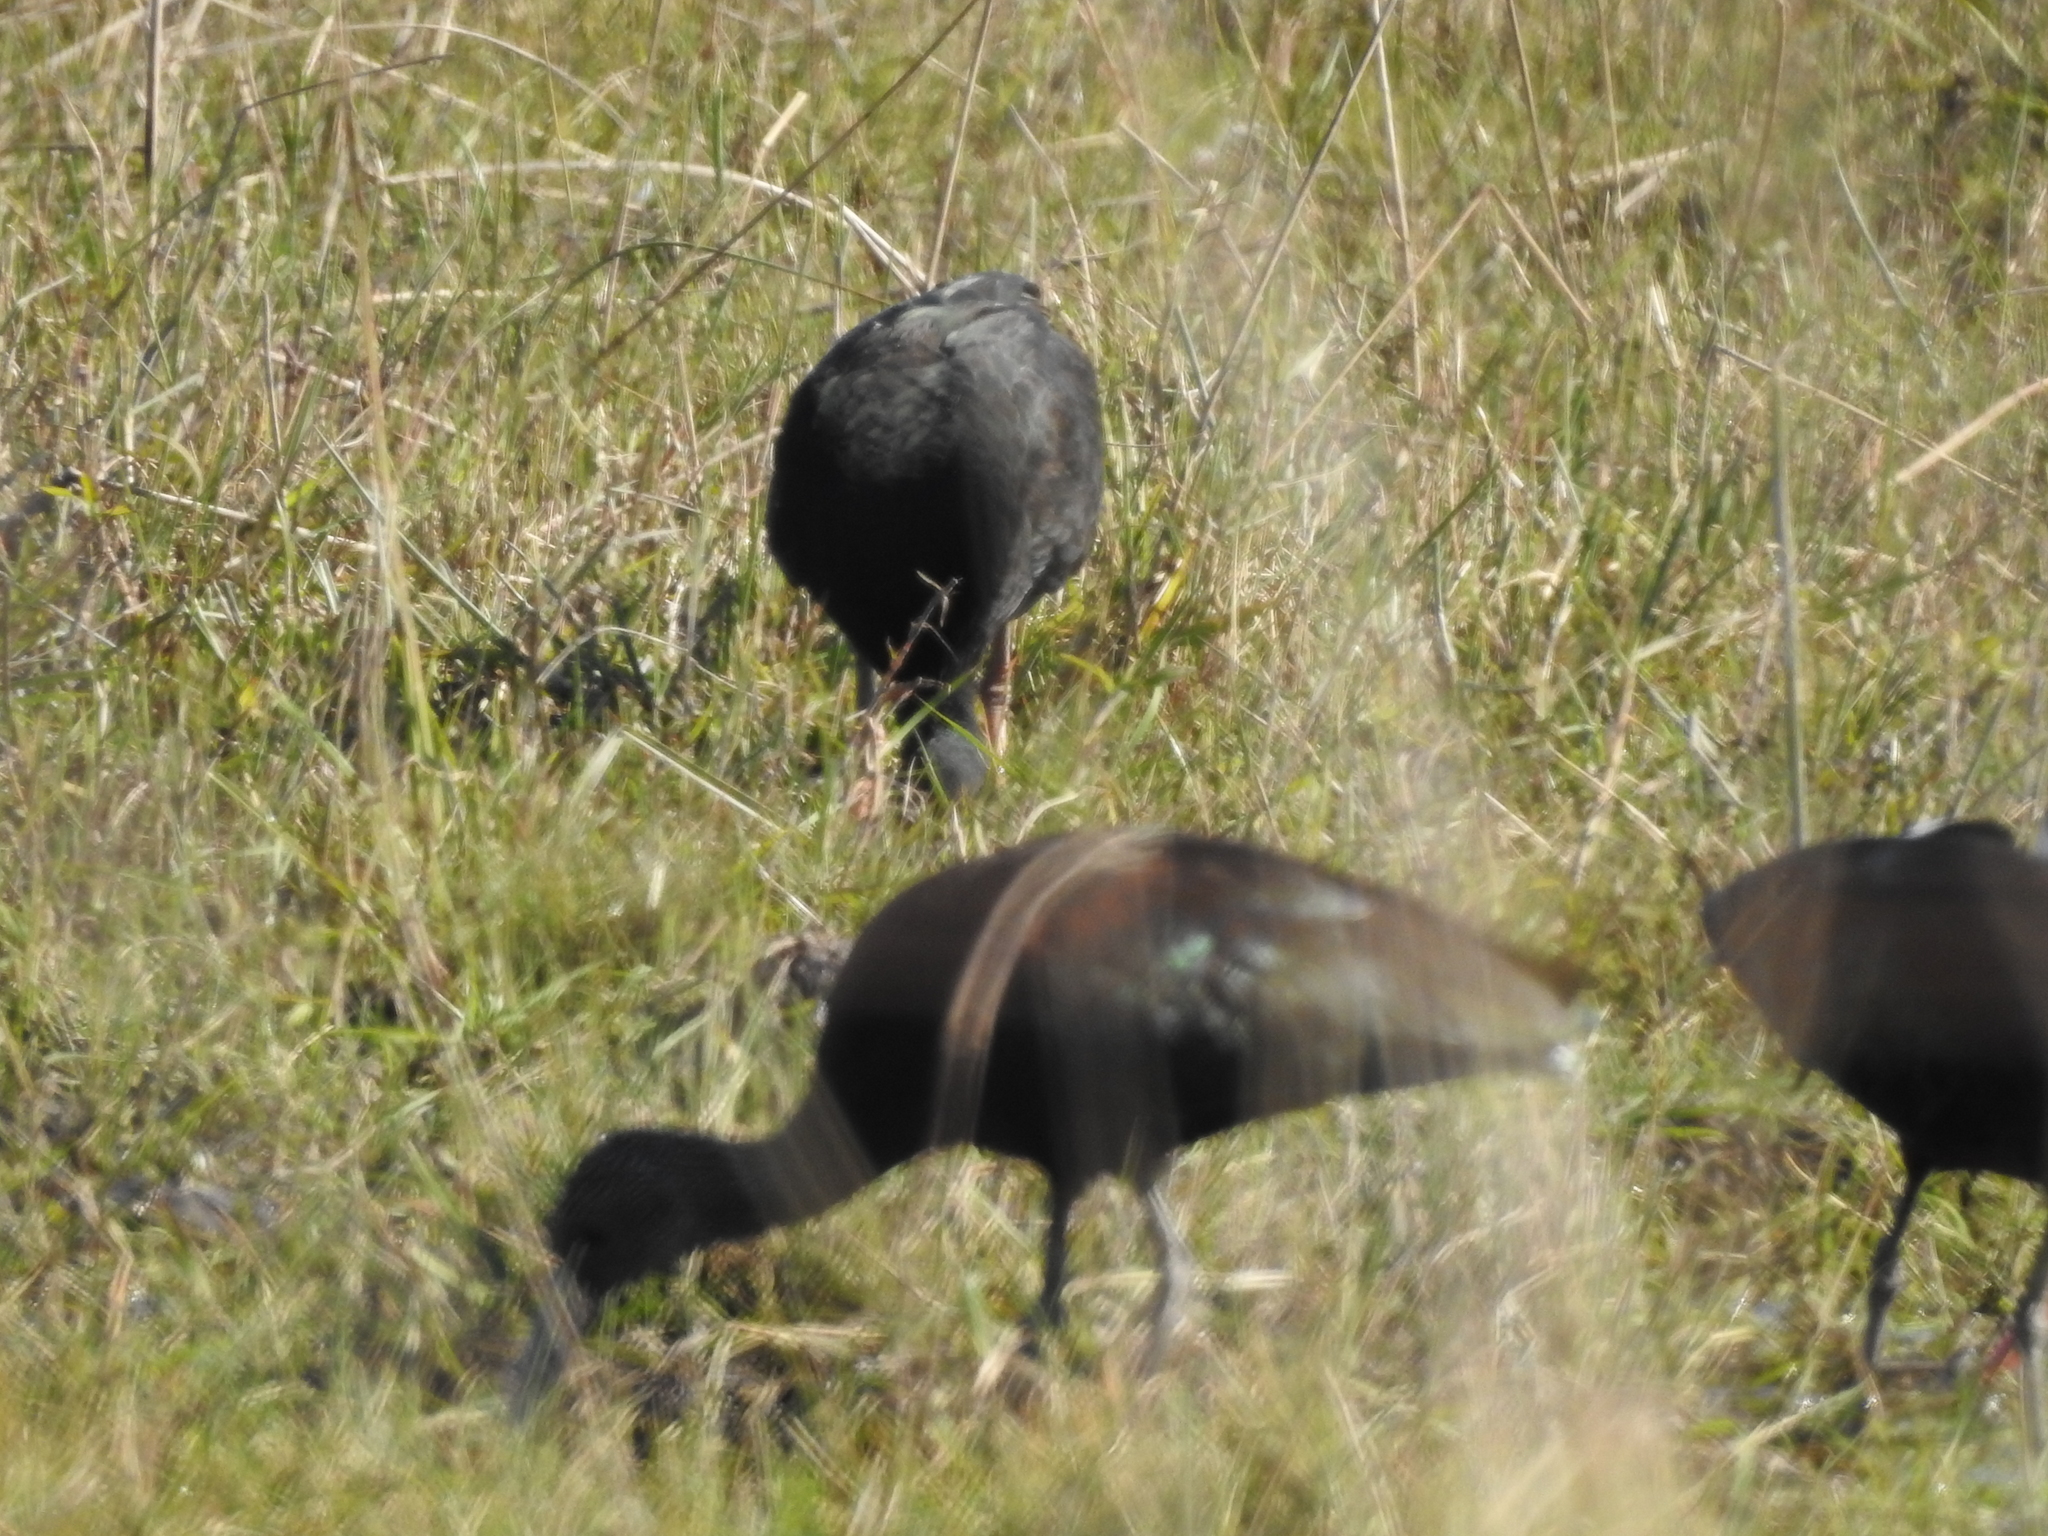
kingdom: Animalia
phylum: Chordata
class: Aves
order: Pelecaniformes
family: Threskiornithidae
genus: Plegadis
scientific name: Plegadis chihi
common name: White-faced ibis
